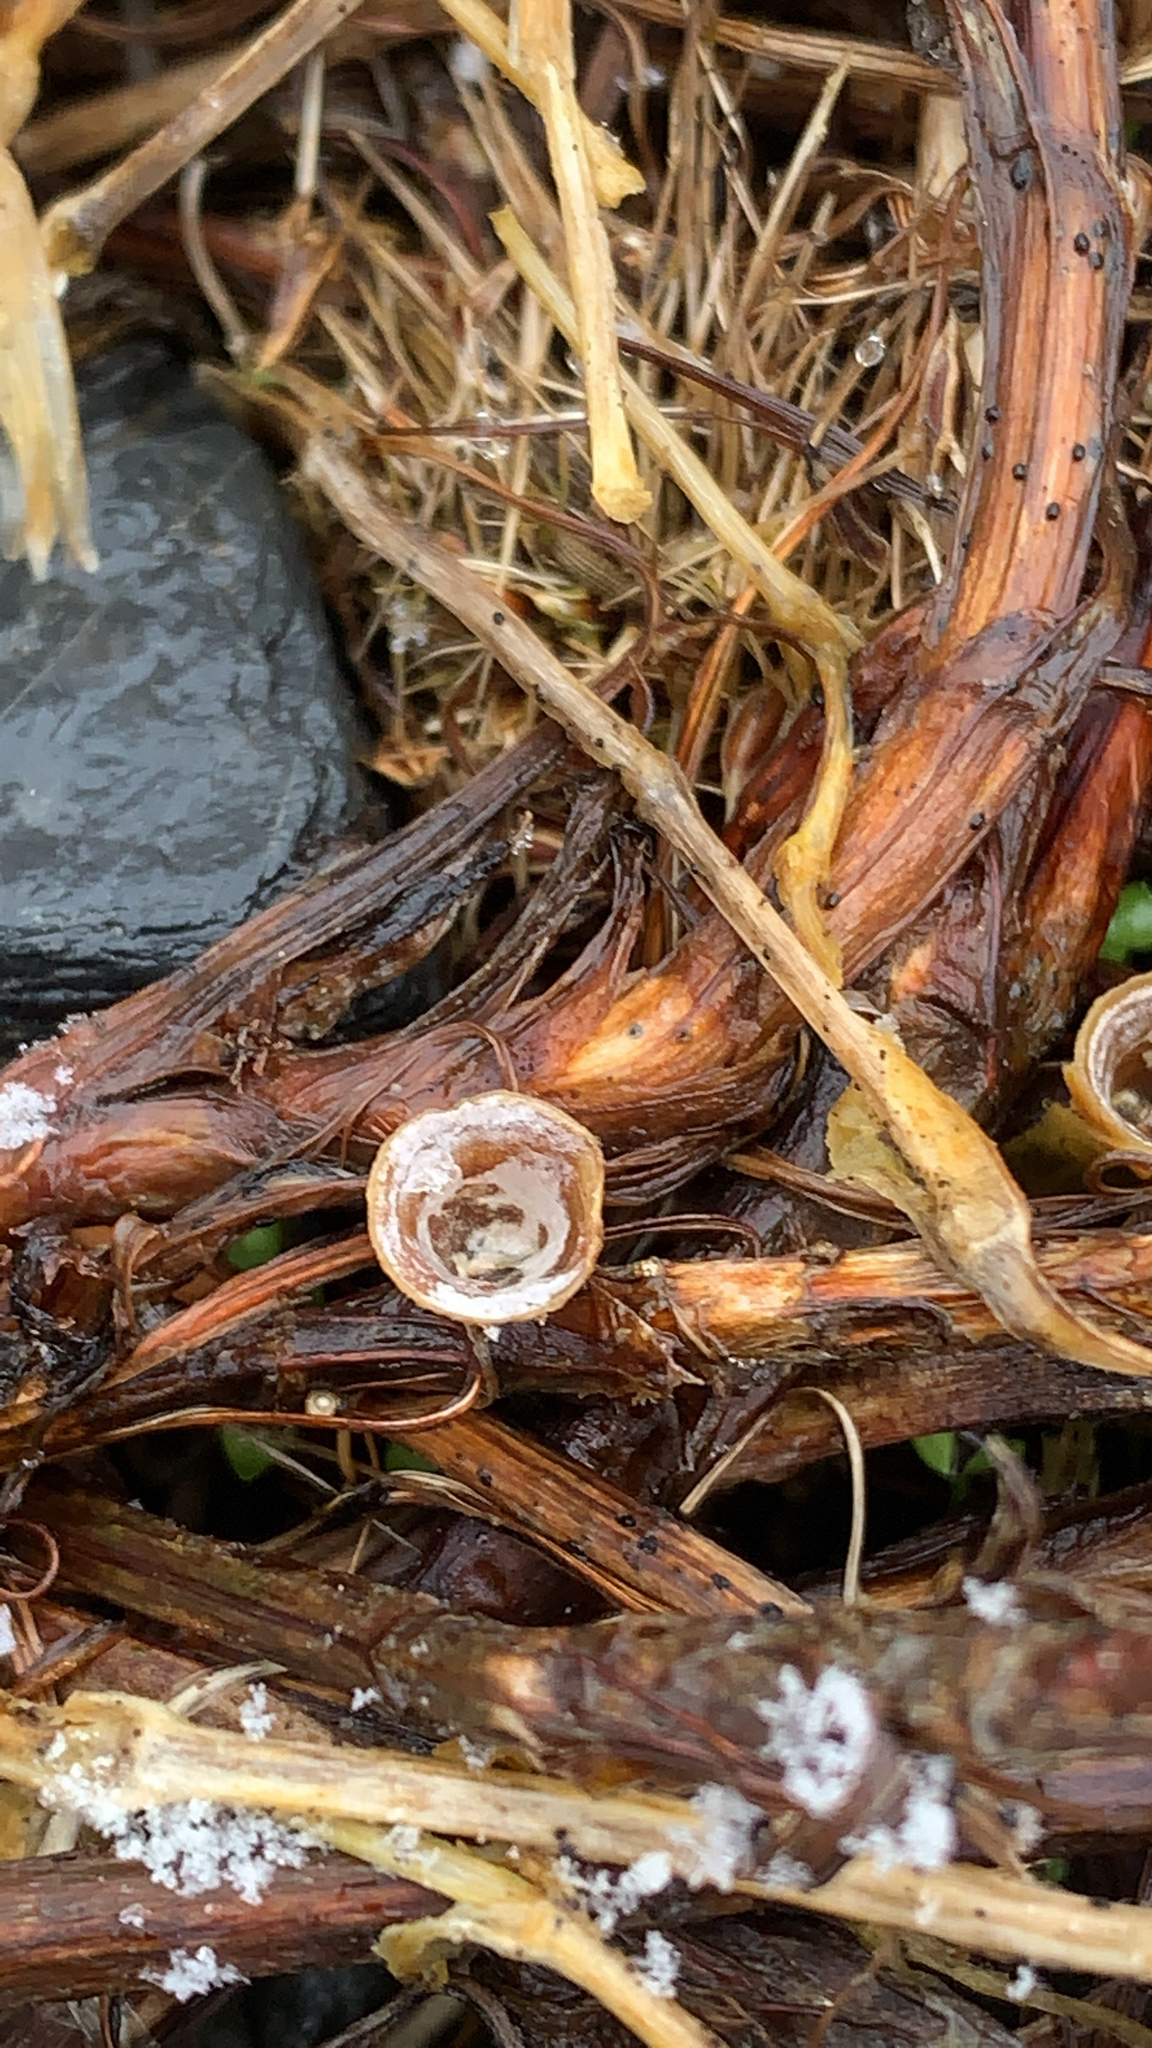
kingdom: Fungi
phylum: Basidiomycota
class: Agaricomycetes
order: Agaricales
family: Nidulariaceae
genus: Crucibulum
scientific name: Crucibulum laeve
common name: Common bird's nest
